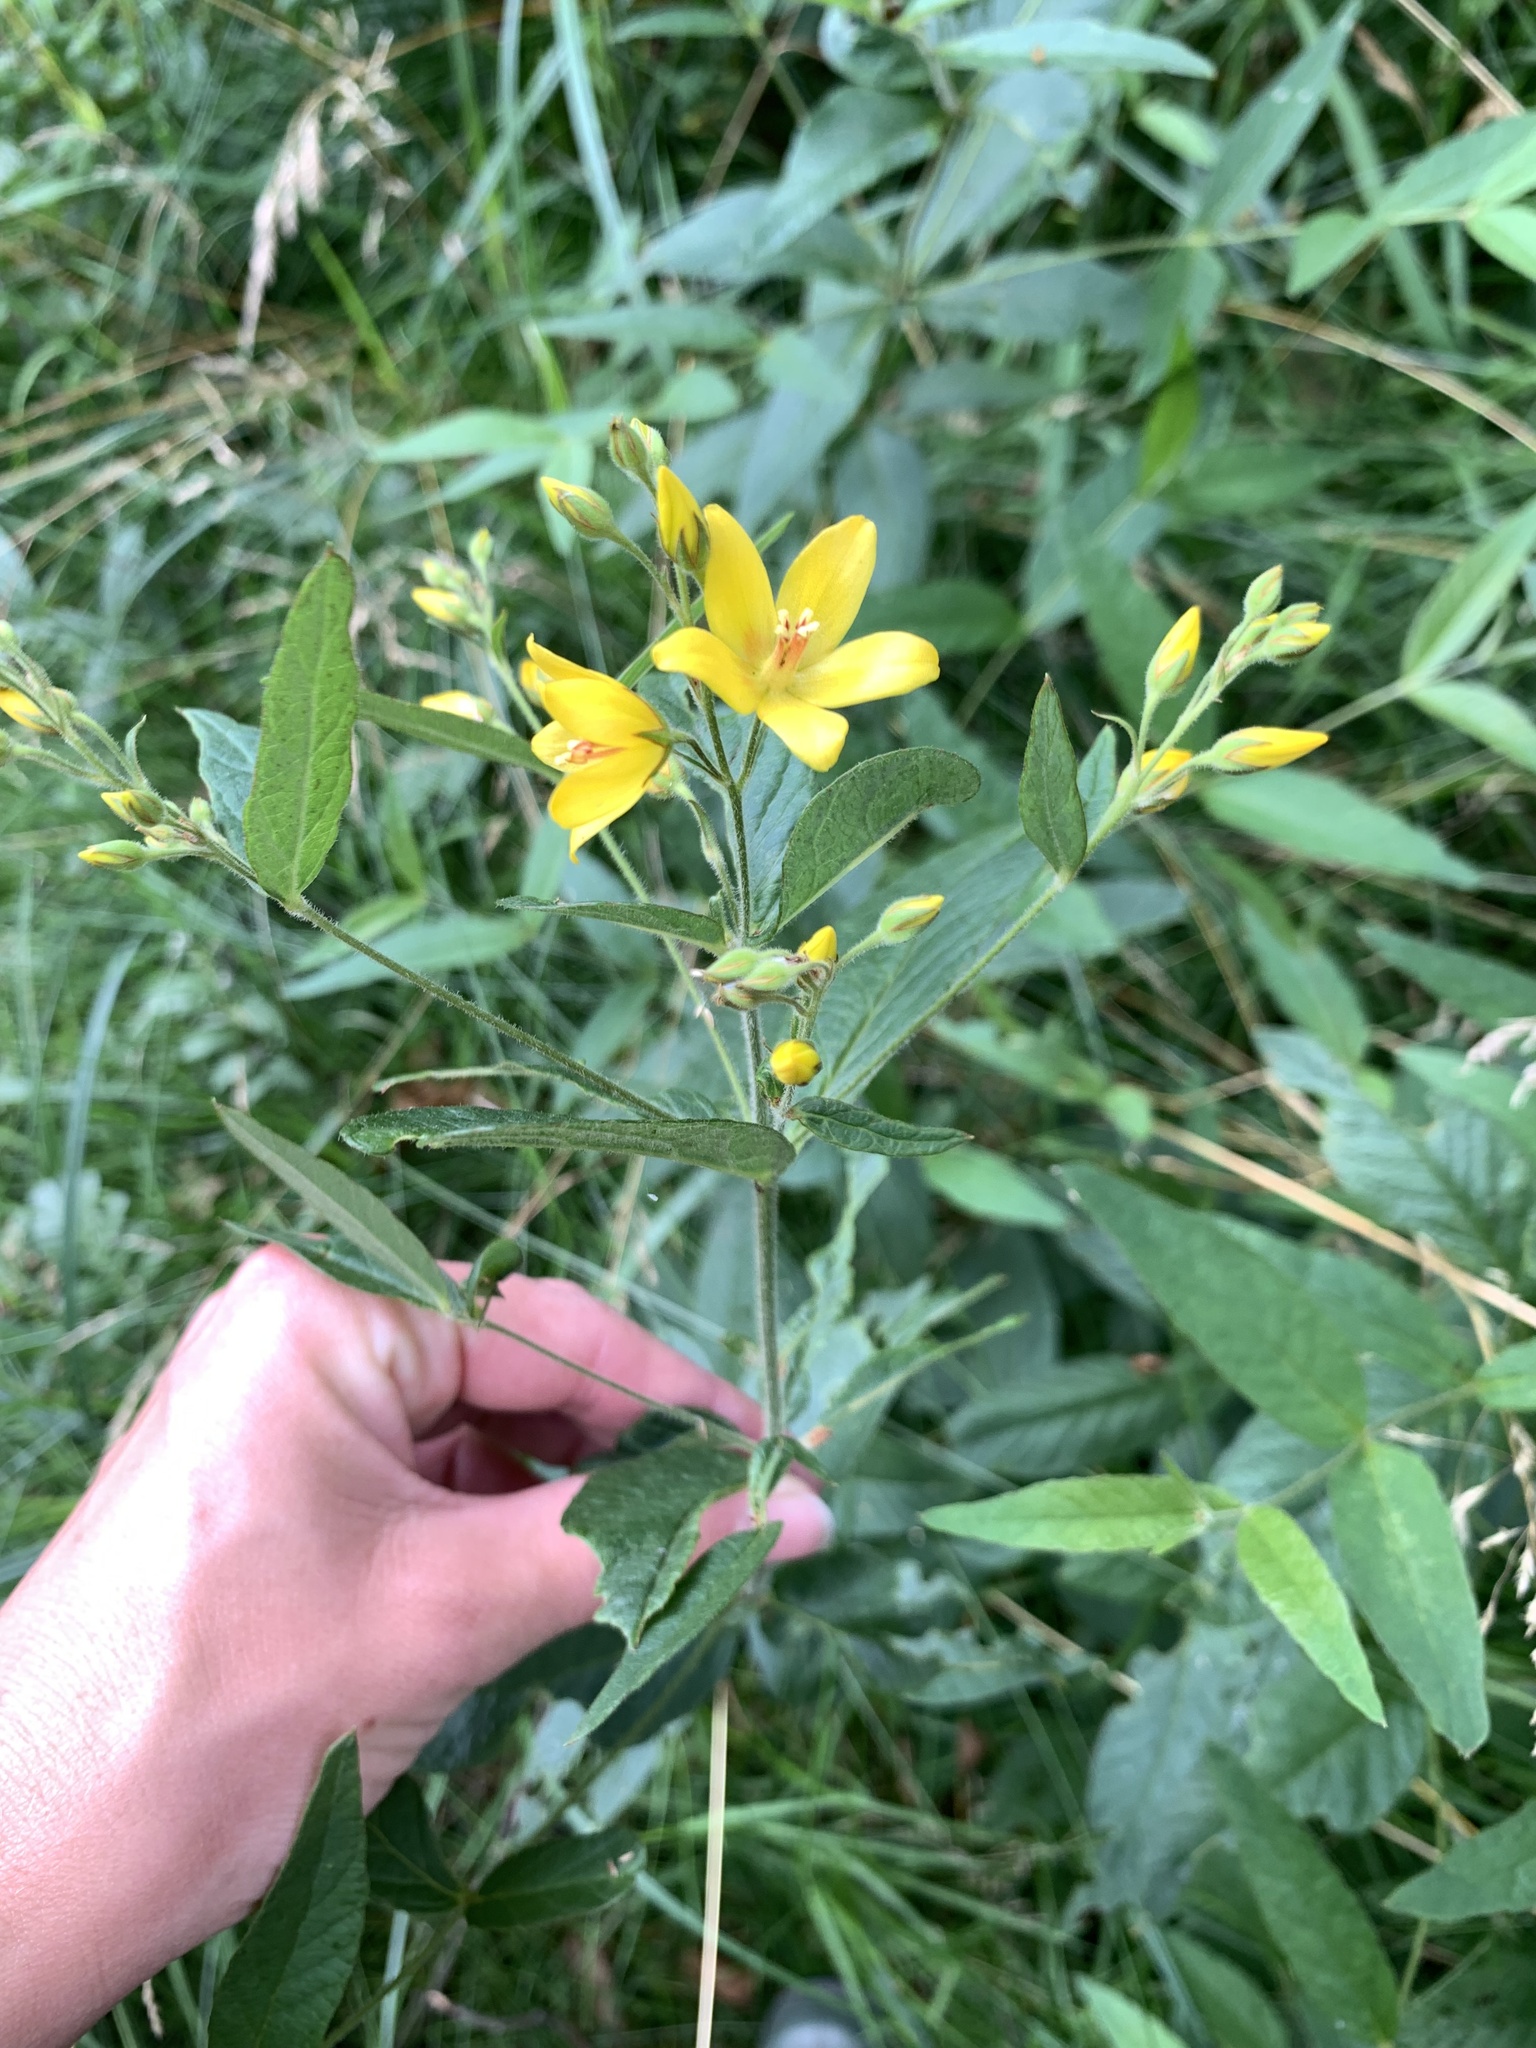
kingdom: Plantae
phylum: Tracheophyta
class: Magnoliopsida
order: Ericales
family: Primulaceae
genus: Lysimachia
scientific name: Lysimachia vulgaris
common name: Yellow loosestrife
